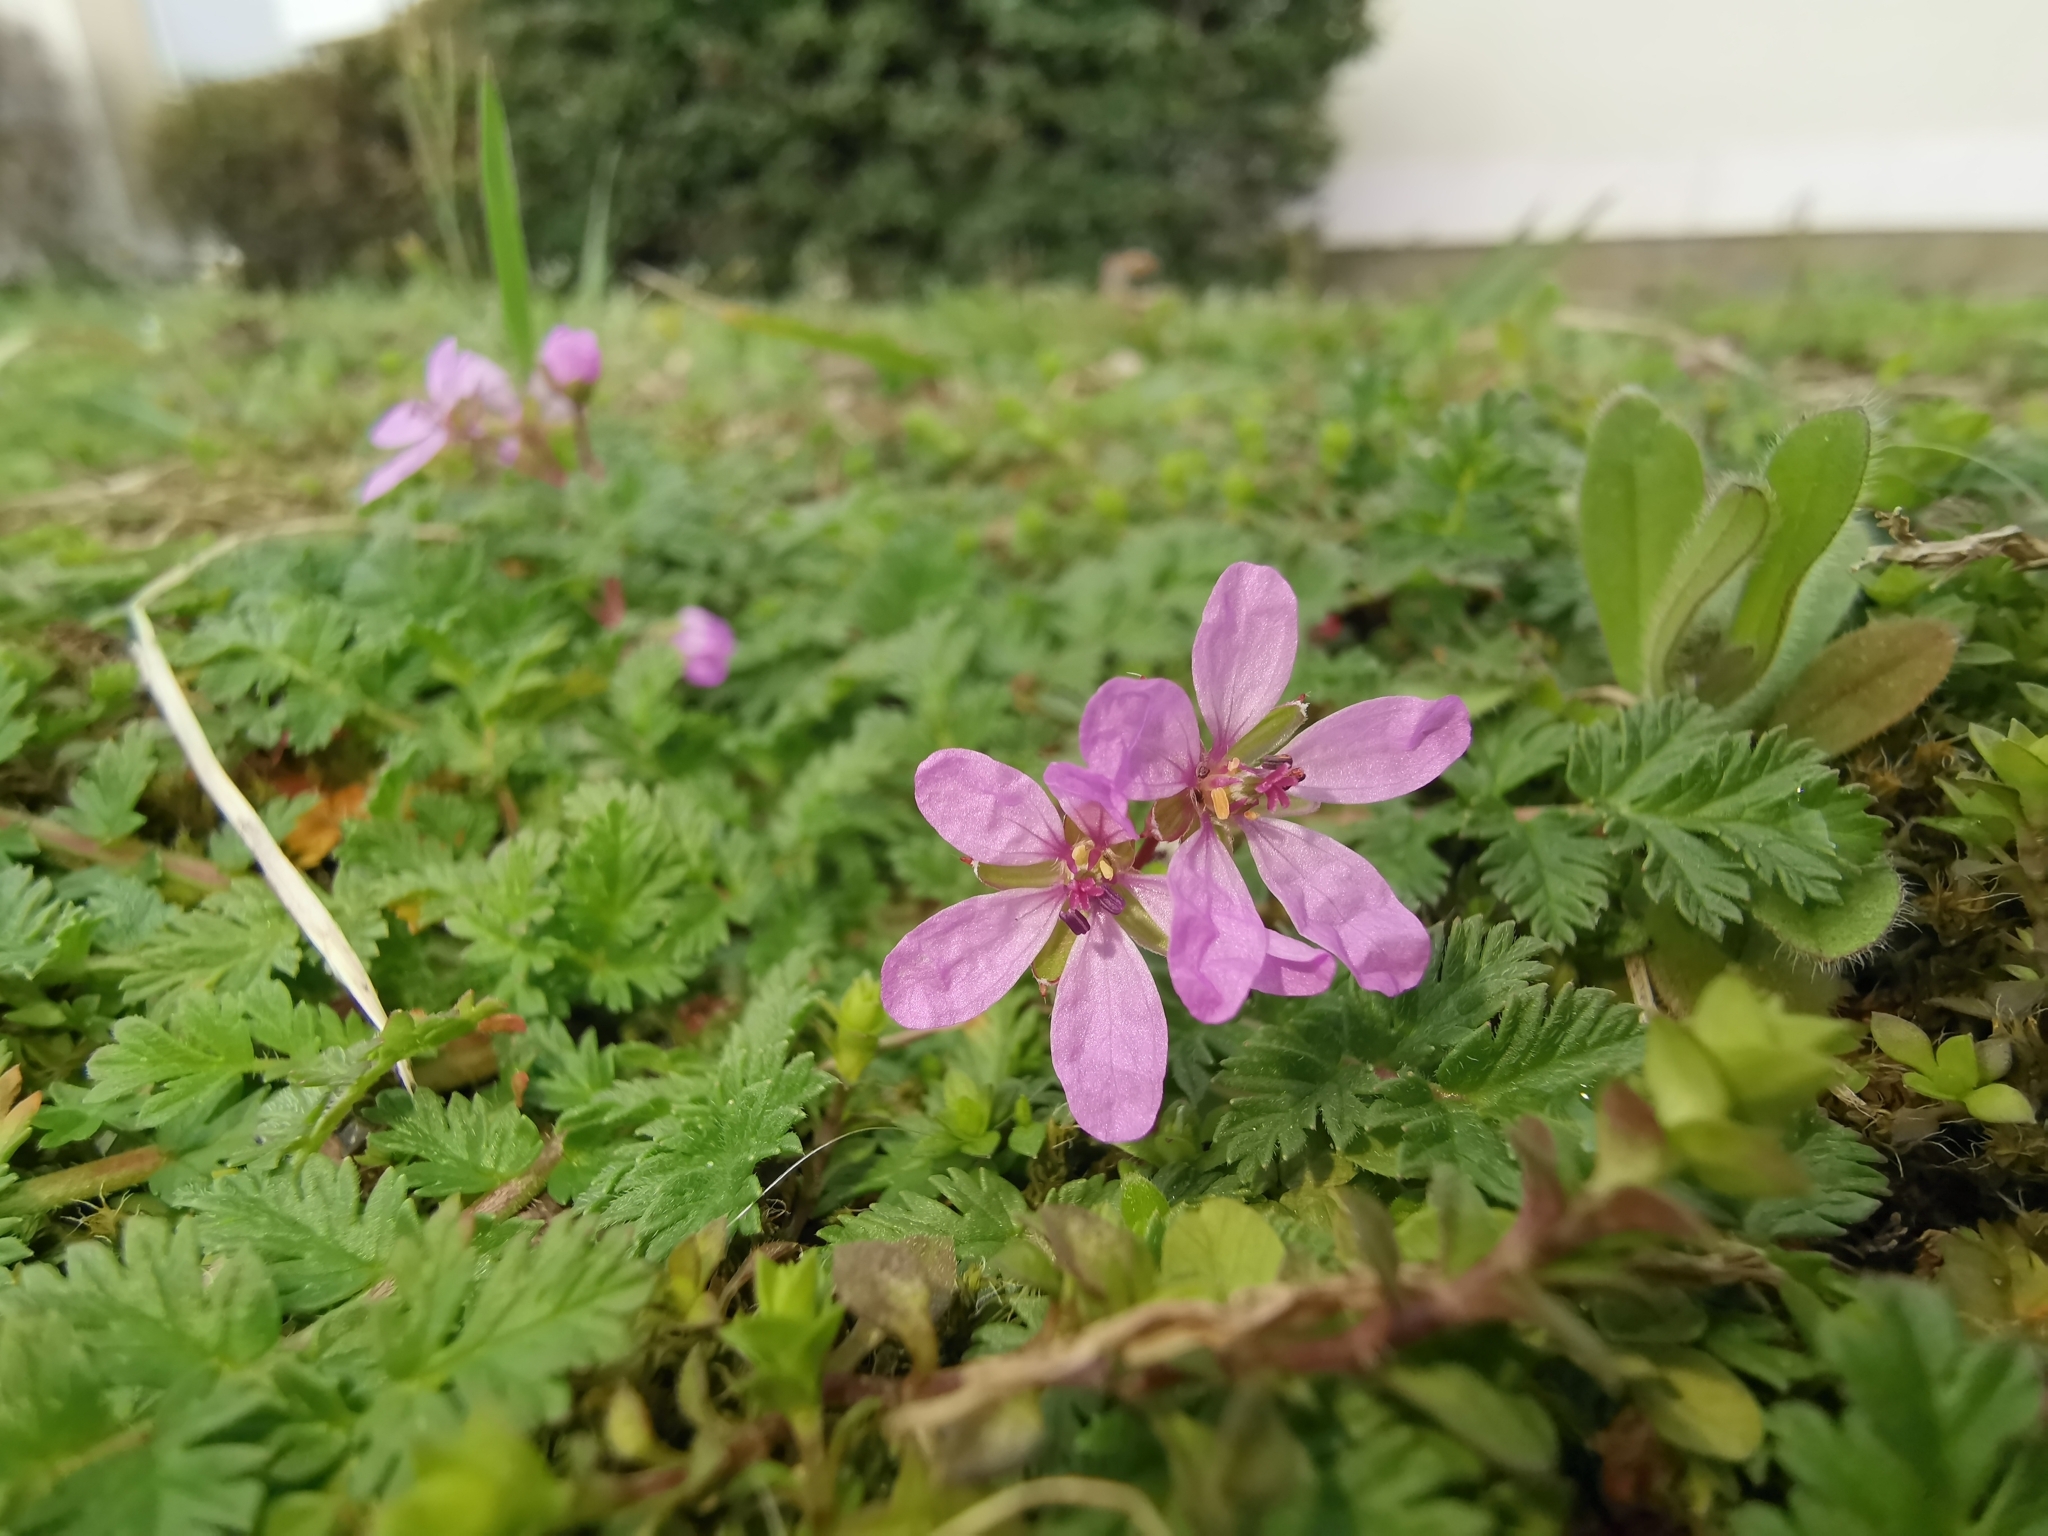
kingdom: Plantae
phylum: Tracheophyta
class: Magnoliopsida
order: Geraniales
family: Geraniaceae
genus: Erodium
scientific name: Erodium cicutarium
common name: Common stork's-bill
